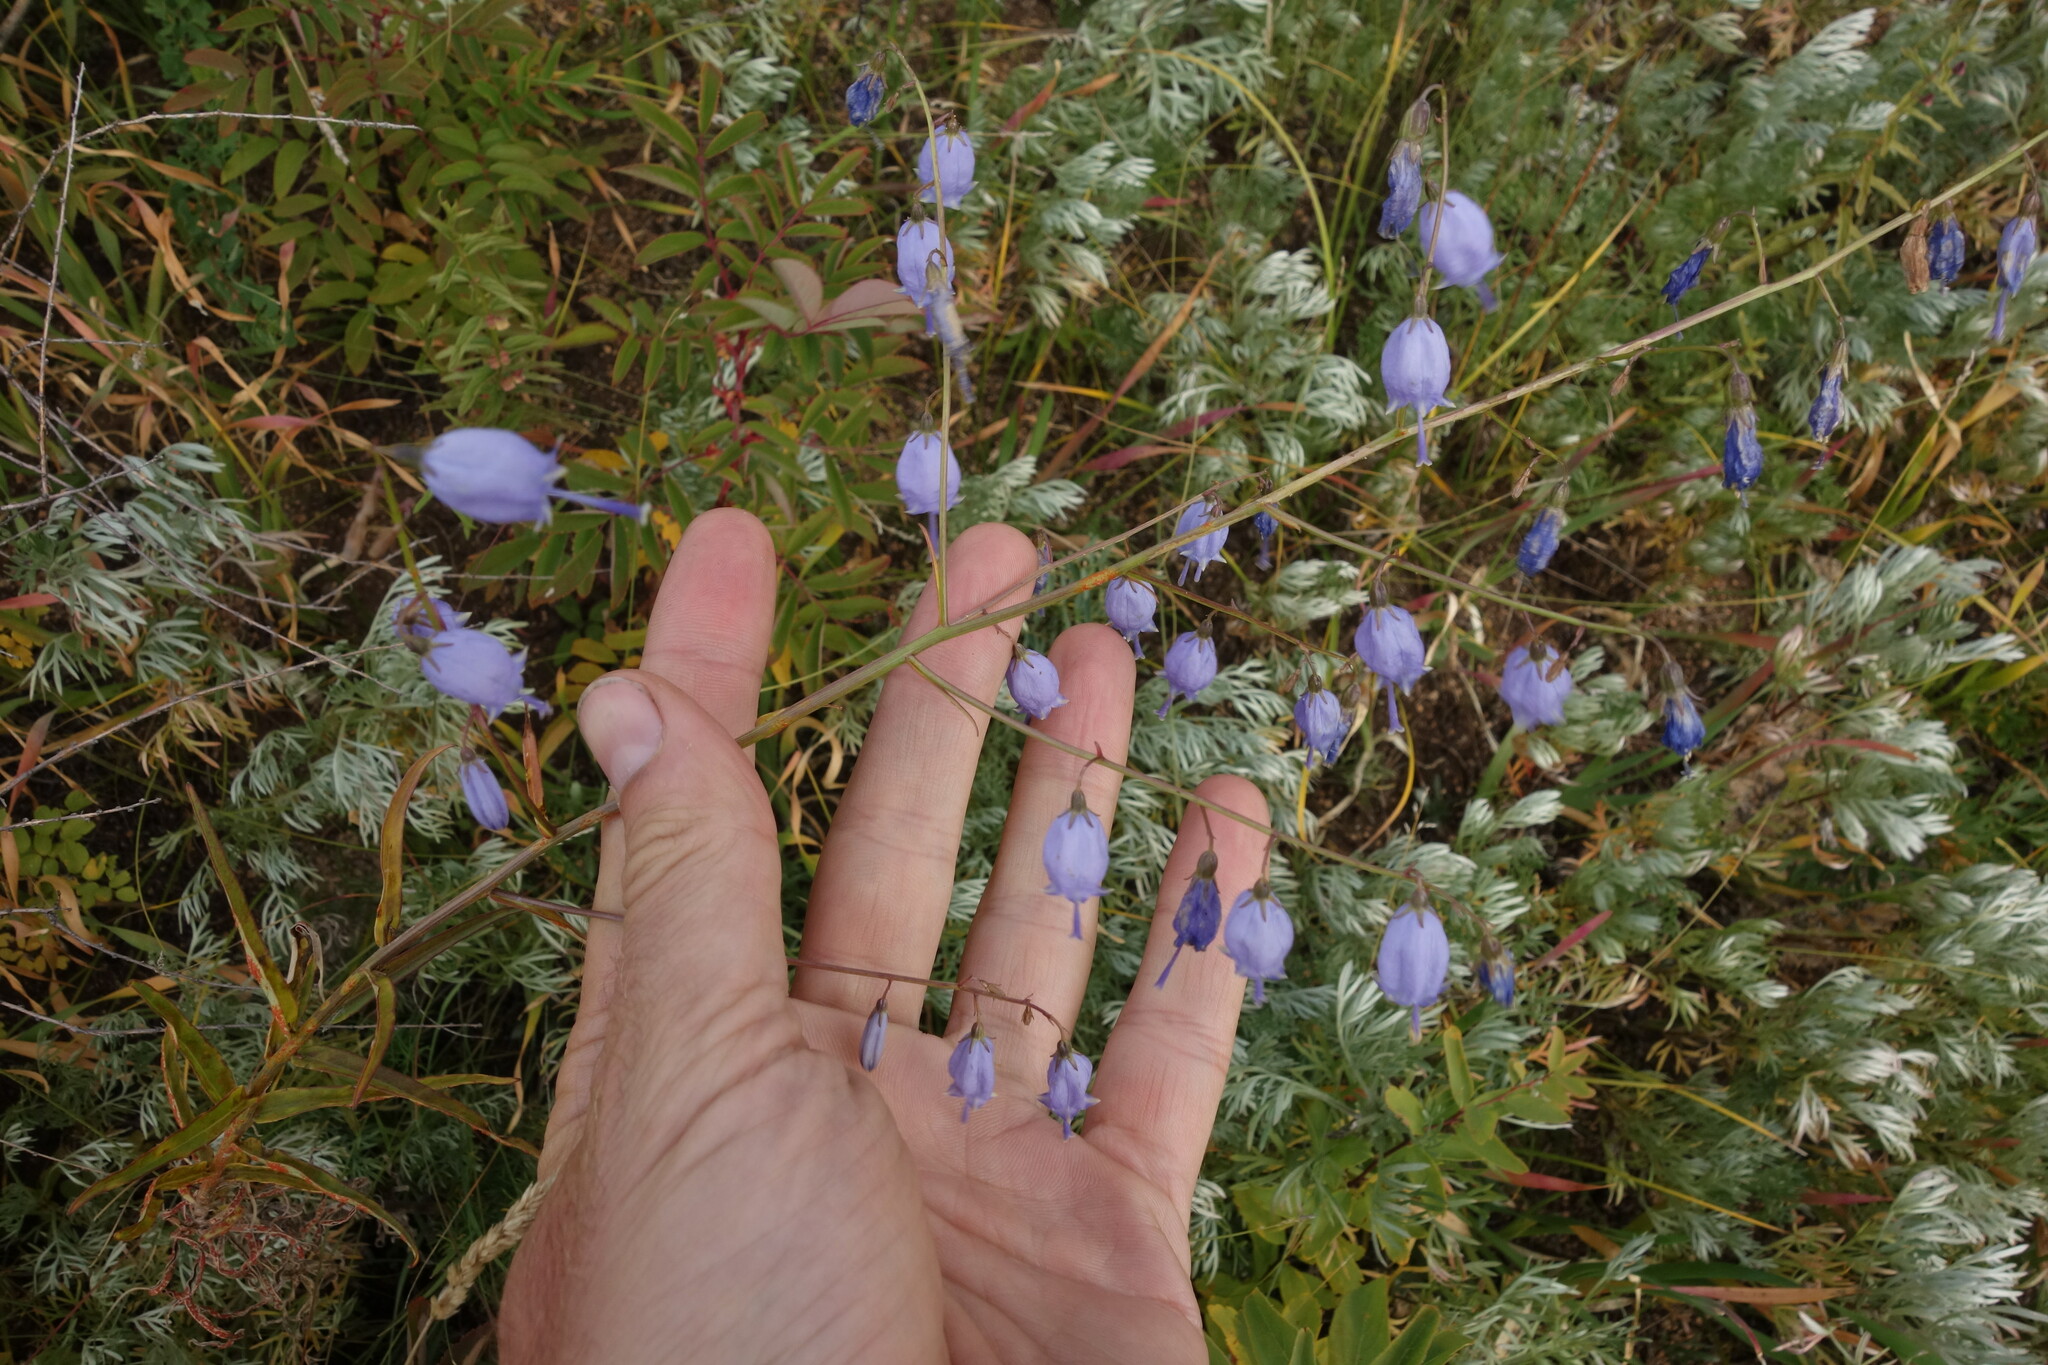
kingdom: Plantae
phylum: Tracheophyta
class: Magnoliopsida
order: Asterales
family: Campanulaceae
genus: Adenophora
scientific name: Adenophora stenanthina
